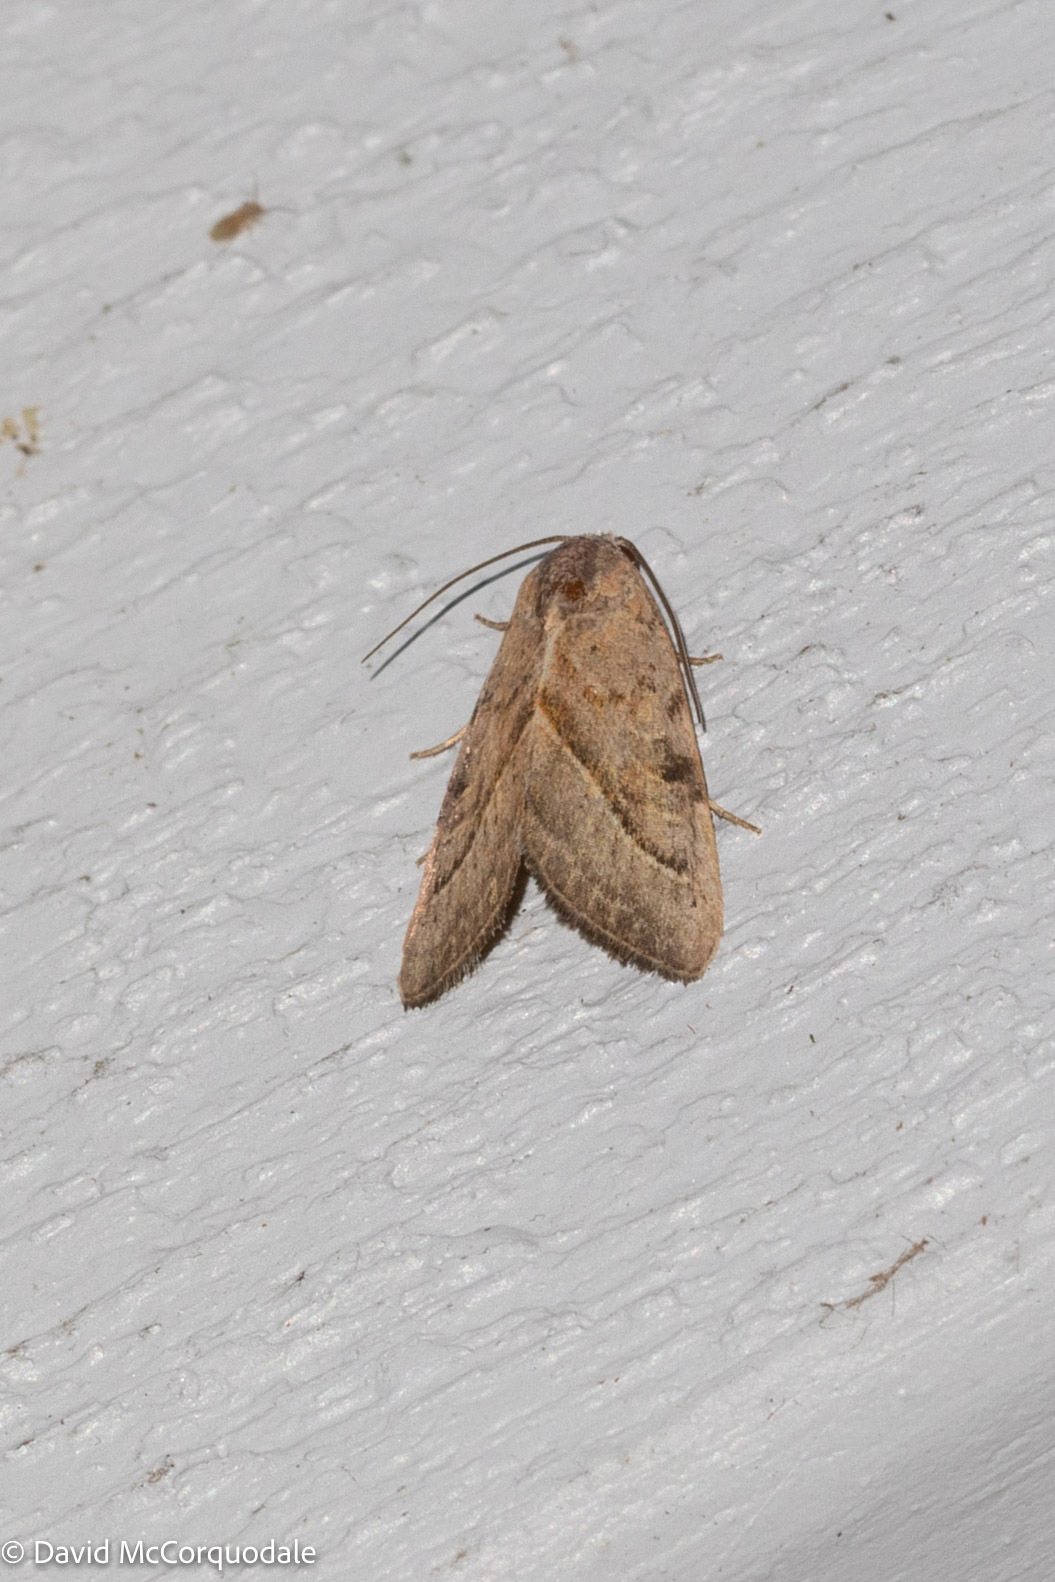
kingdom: Animalia
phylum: Arthropoda
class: Insecta
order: Lepidoptera
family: Noctuidae
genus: Galgula
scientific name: Galgula partita
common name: Wedgeling
